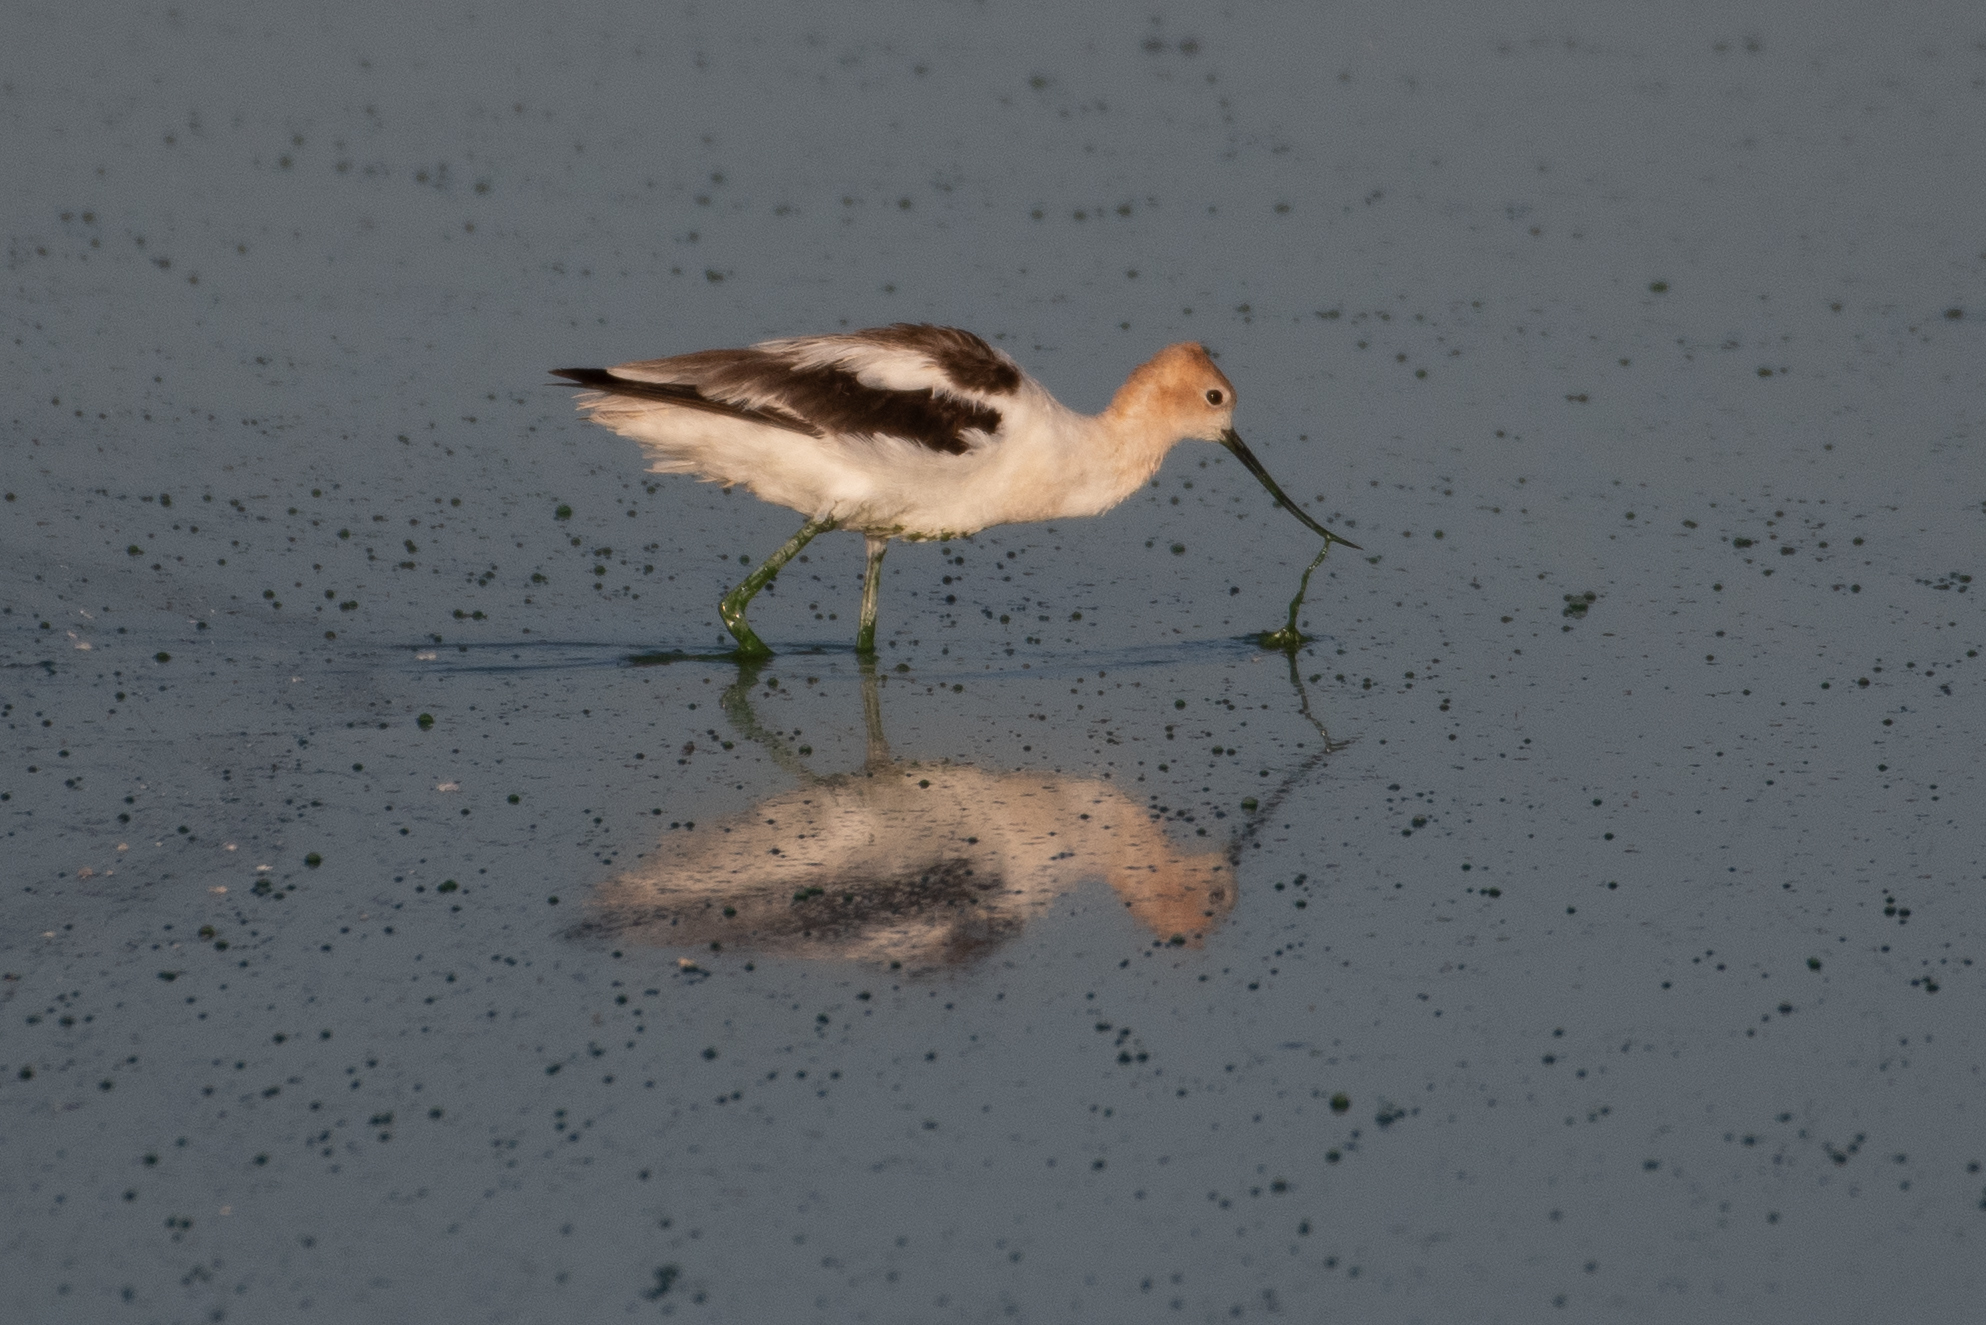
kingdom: Animalia
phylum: Chordata
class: Aves
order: Charadriiformes
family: Recurvirostridae
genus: Recurvirostra
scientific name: Recurvirostra americana
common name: American avocet
